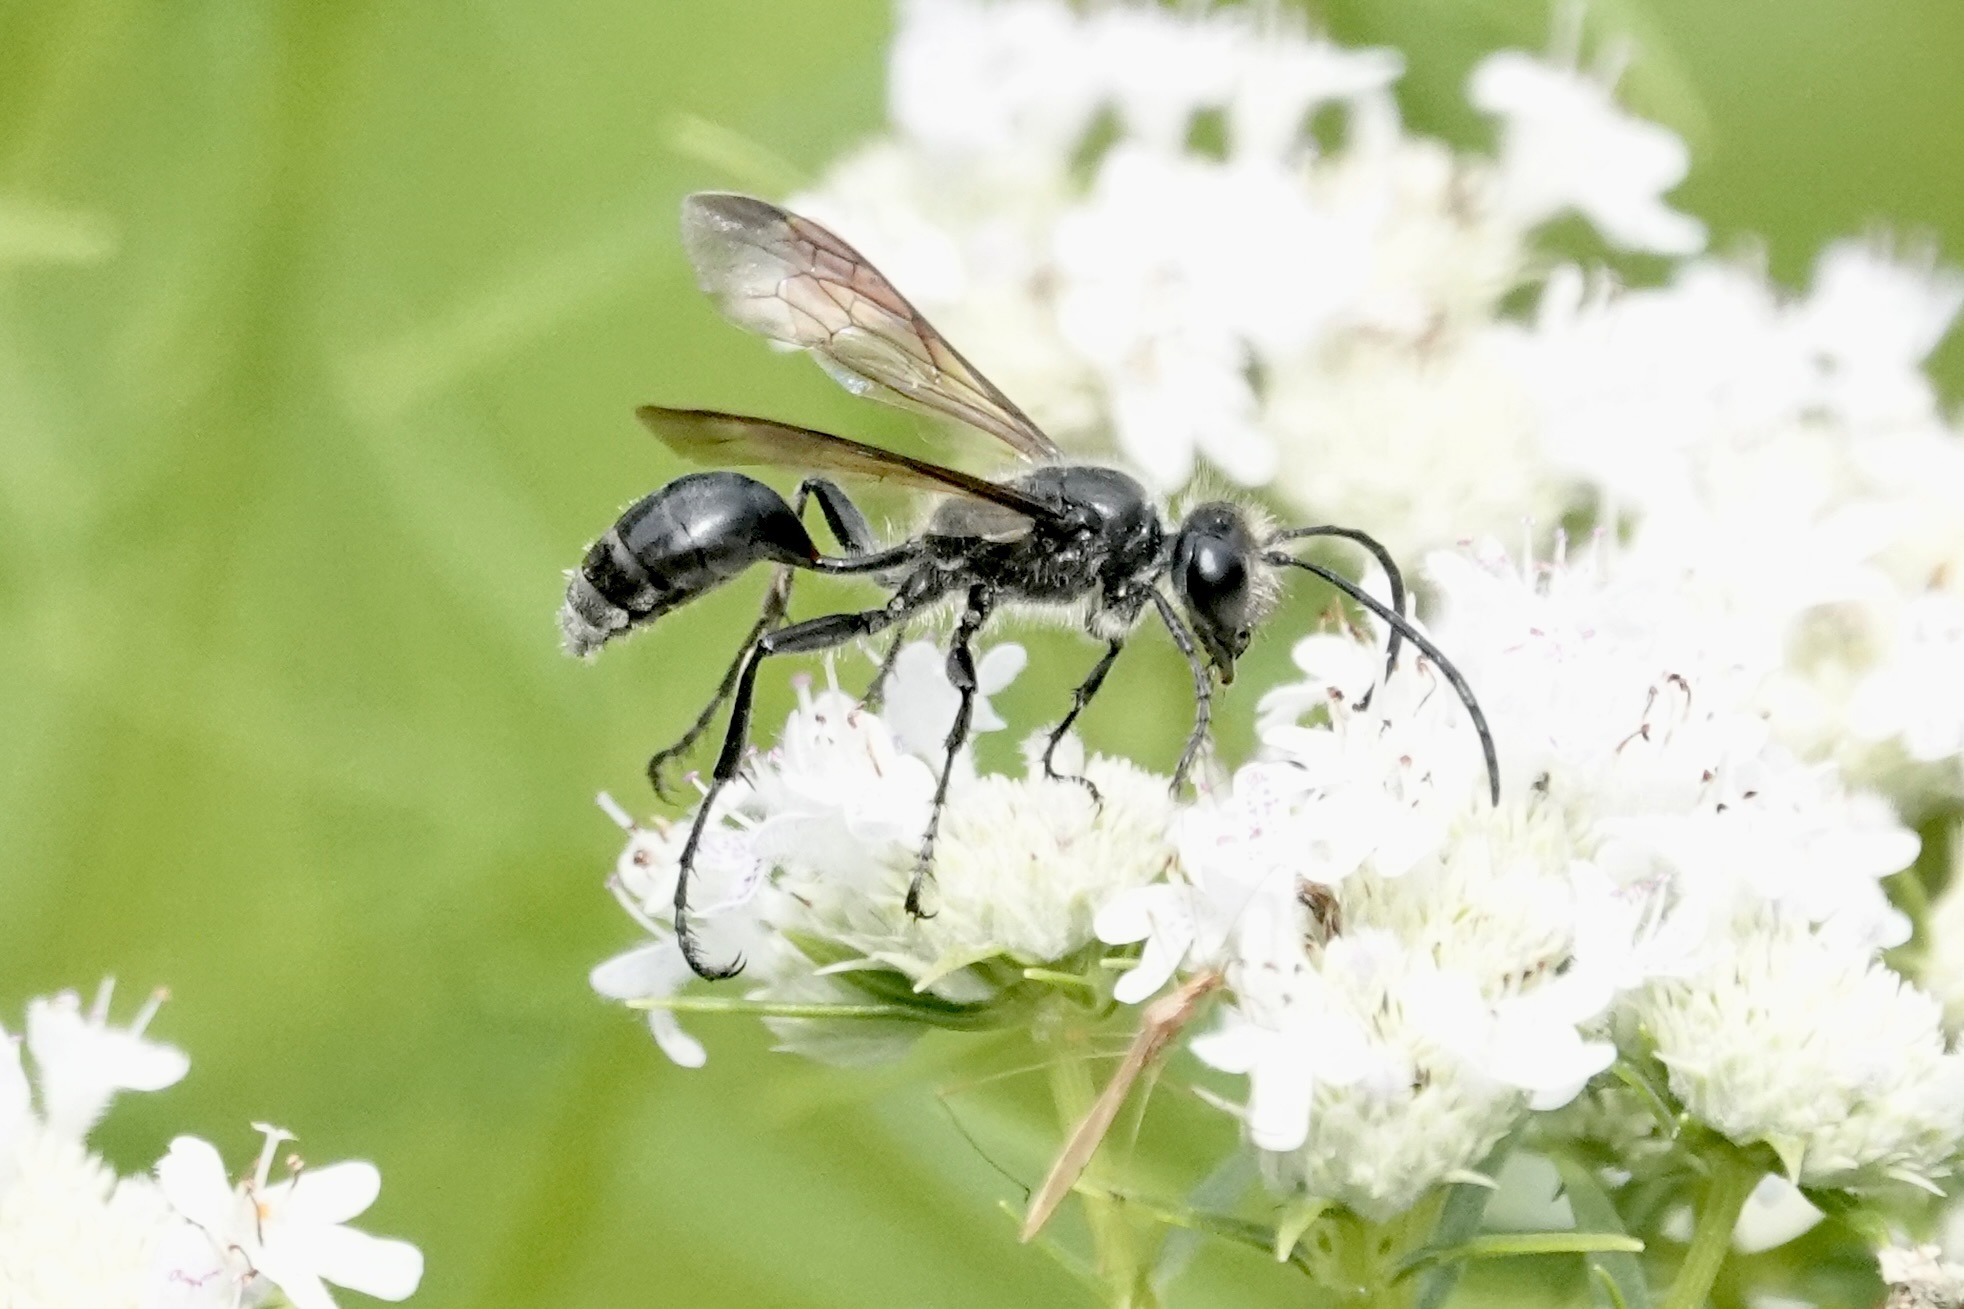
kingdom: Animalia
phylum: Arthropoda
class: Insecta
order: Hymenoptera
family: Sphecidae
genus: Isodontia
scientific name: Isodontia mexicana
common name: Mud dauber
